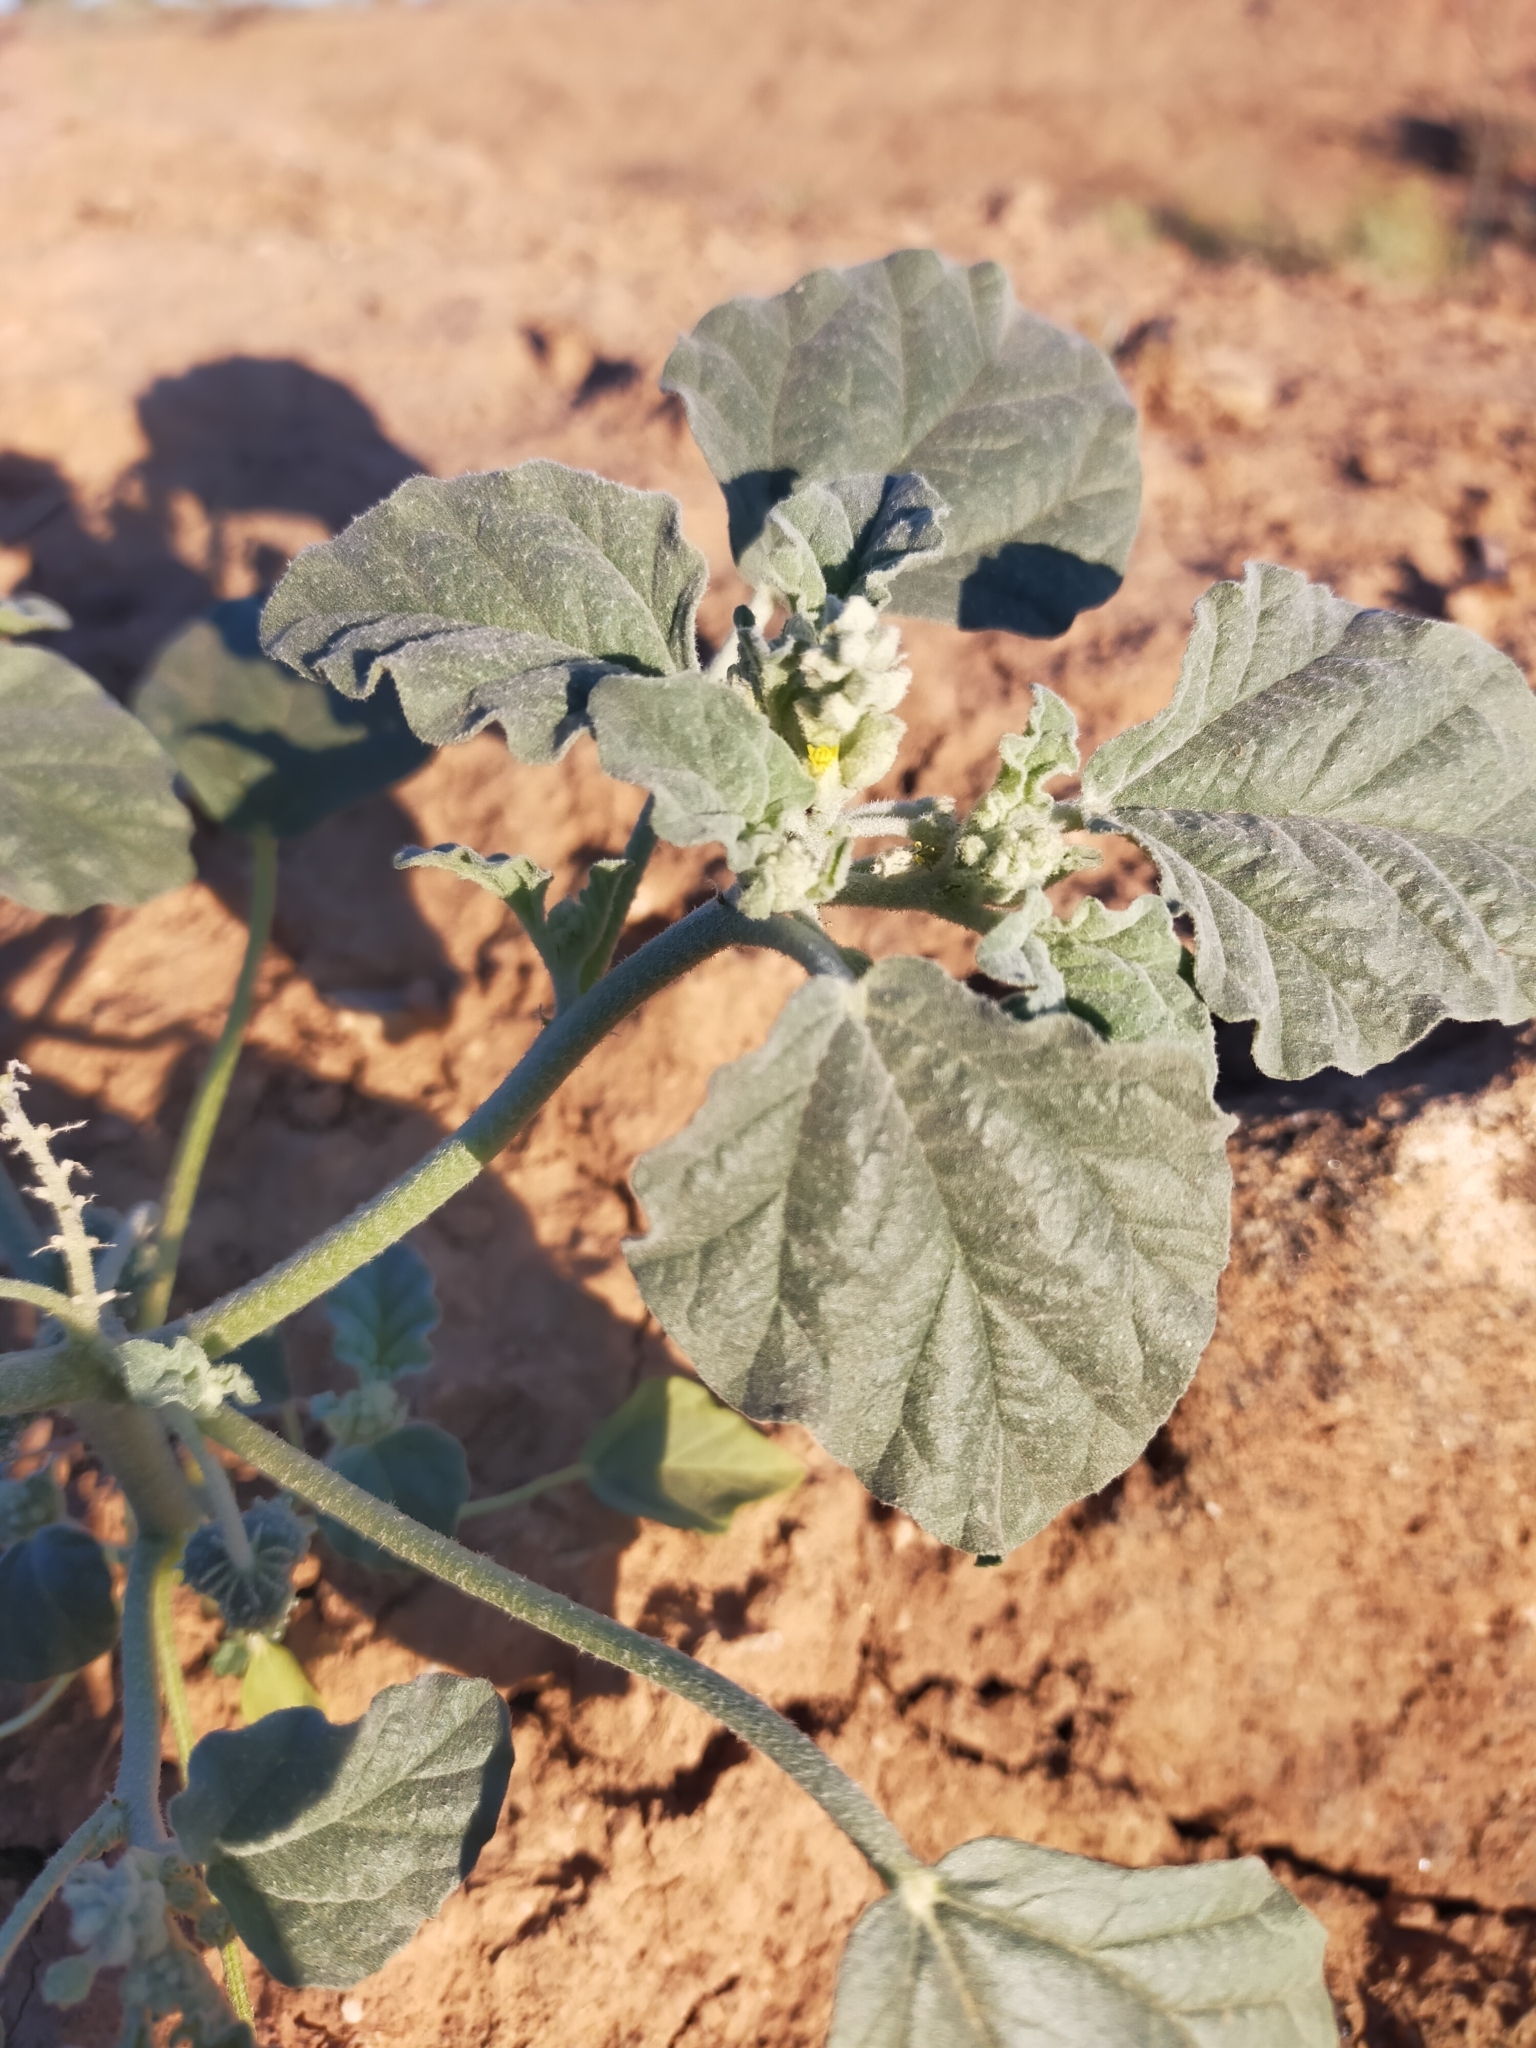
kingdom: Plantae
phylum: Tracheophyta
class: Magnoliopsida
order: Malpighiales
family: Euphorbiaceae
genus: Chrozophora
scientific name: Chrozophora tinctoria
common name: Dyer's litmus
